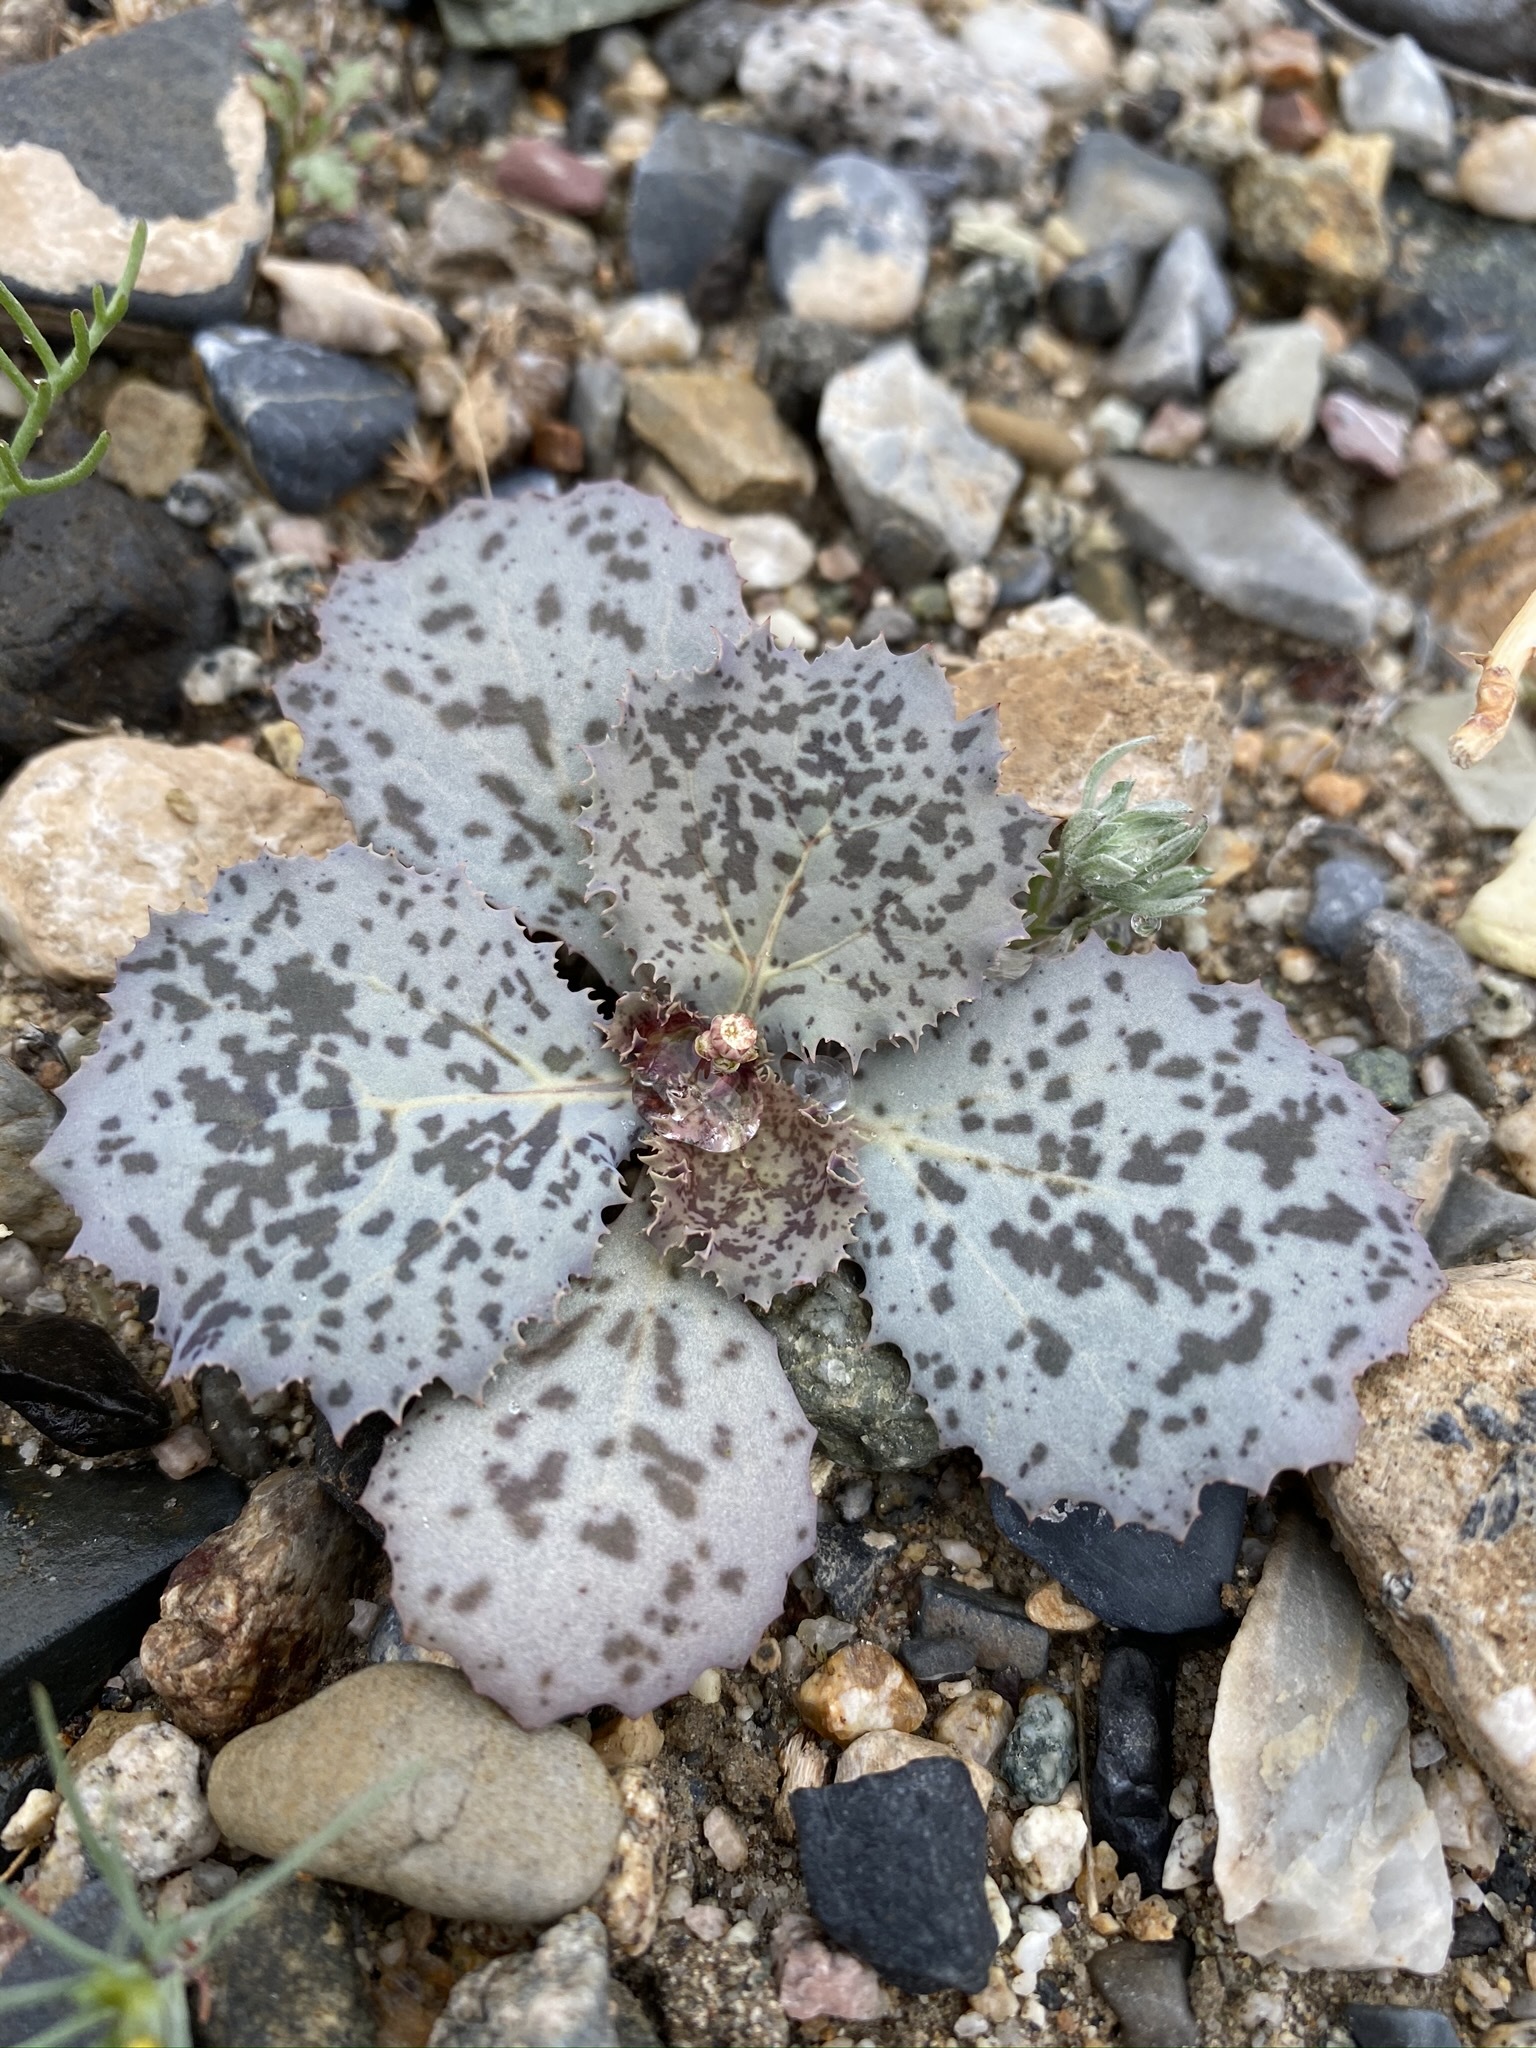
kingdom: Plantae
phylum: Tracheophyta
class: Magnoliopsida
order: Asterales
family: Asteraceae
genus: Atrichoseris
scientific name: Atrichoseris platyphylla
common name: Tobaccoweed
